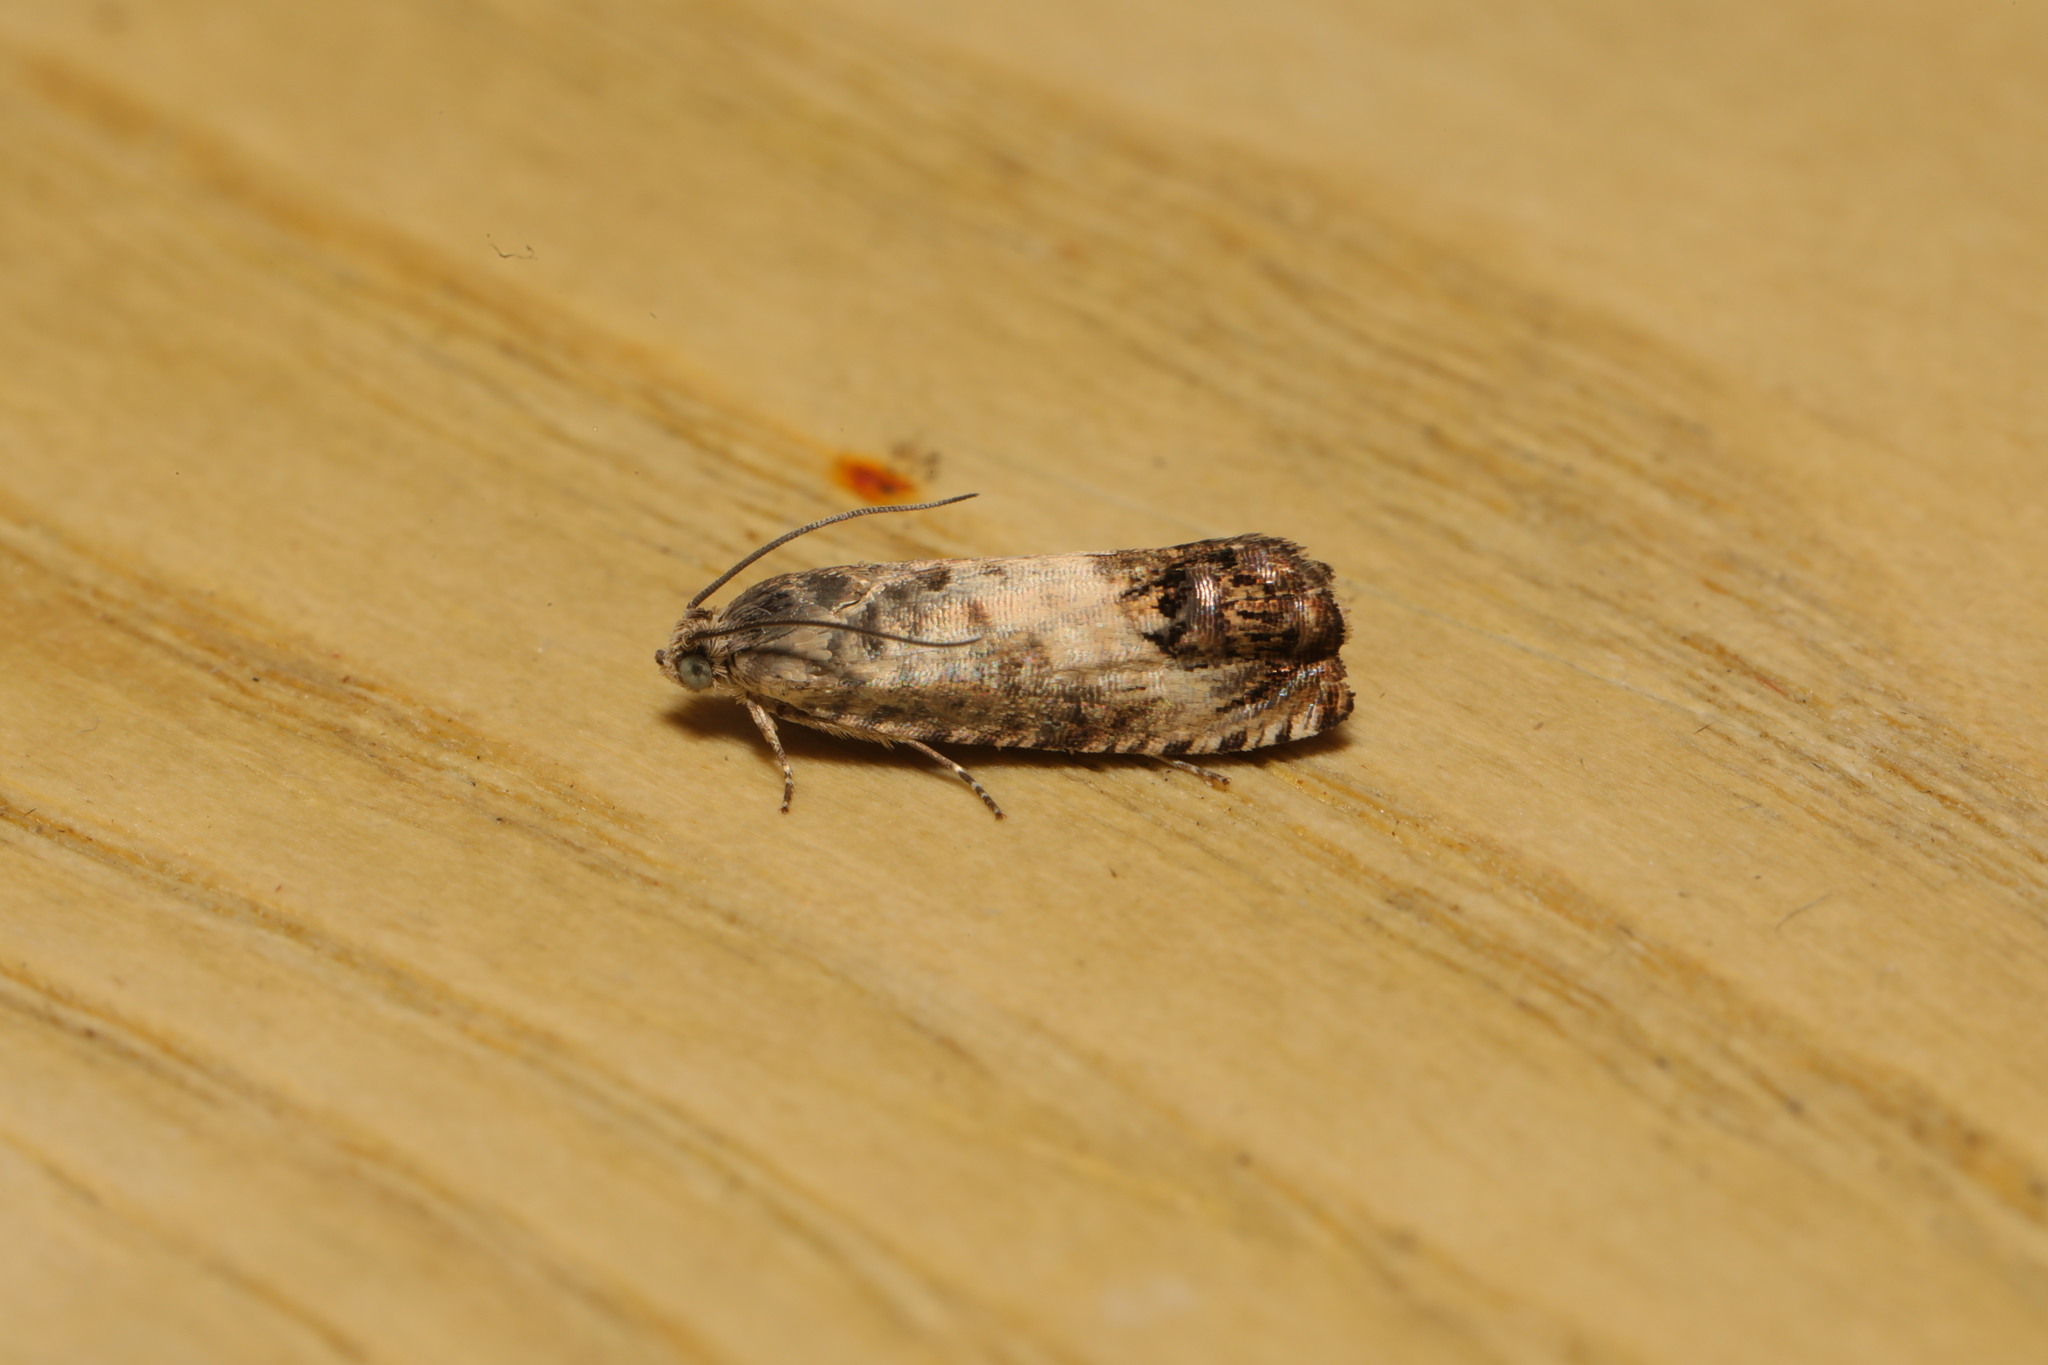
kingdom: Animalia
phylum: Arthropoda
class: Insecta
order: Lepidoptera
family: Tortricidae
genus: Pammene
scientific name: Pammene fasciana
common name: Acorn piercer
